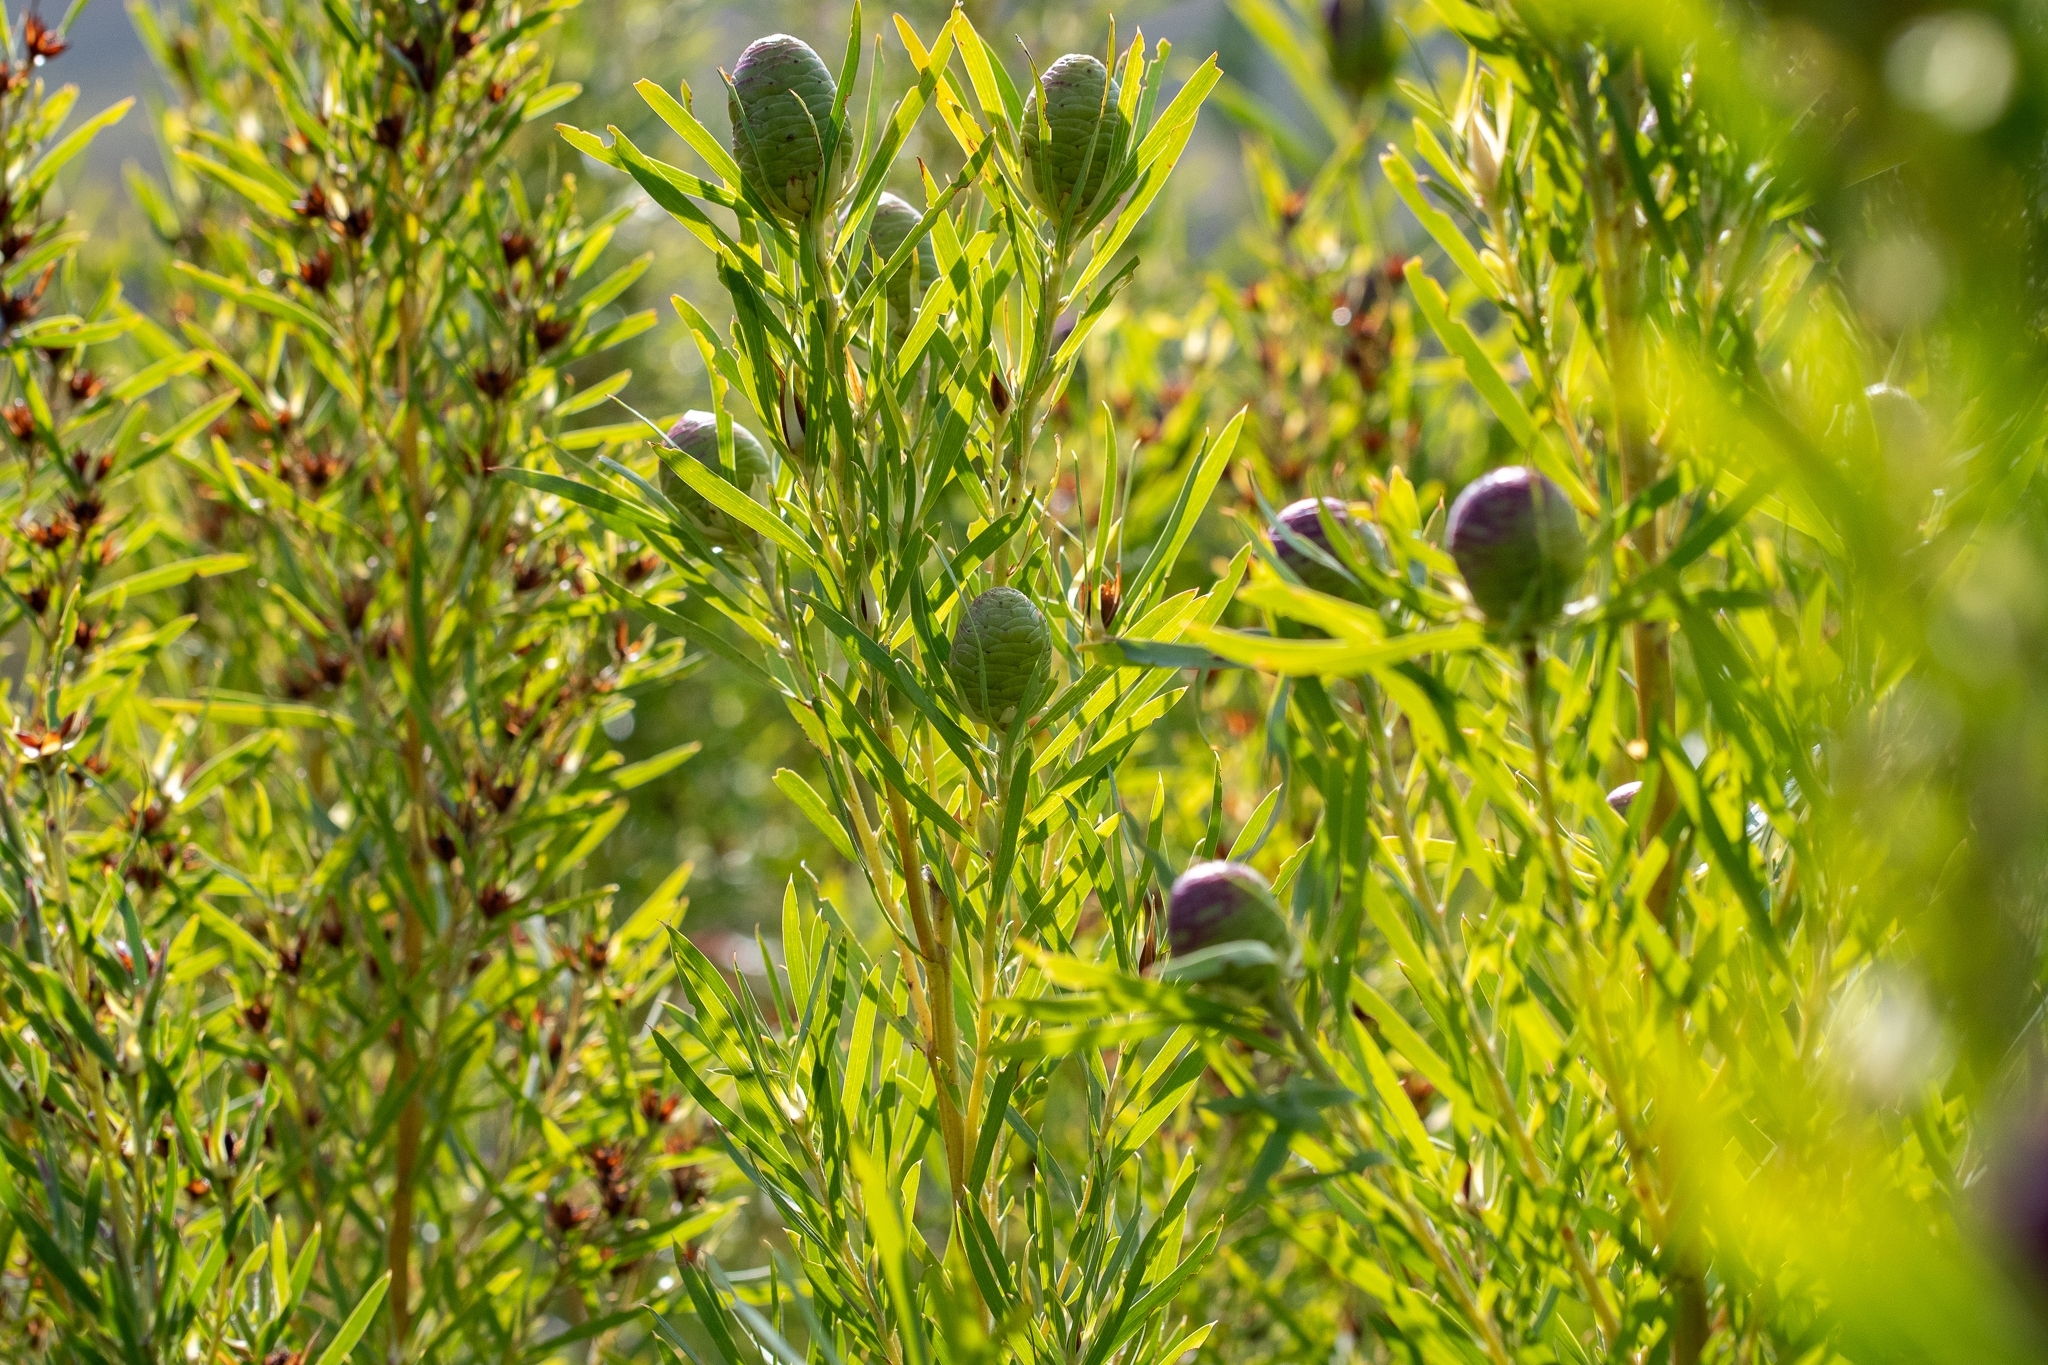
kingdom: Plantae
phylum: Tracheophyta
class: Magnoliopsida
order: Proteales
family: Proteaceae
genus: Leucadendron
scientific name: Leucadendron salicifolium
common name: Common stream conebush
